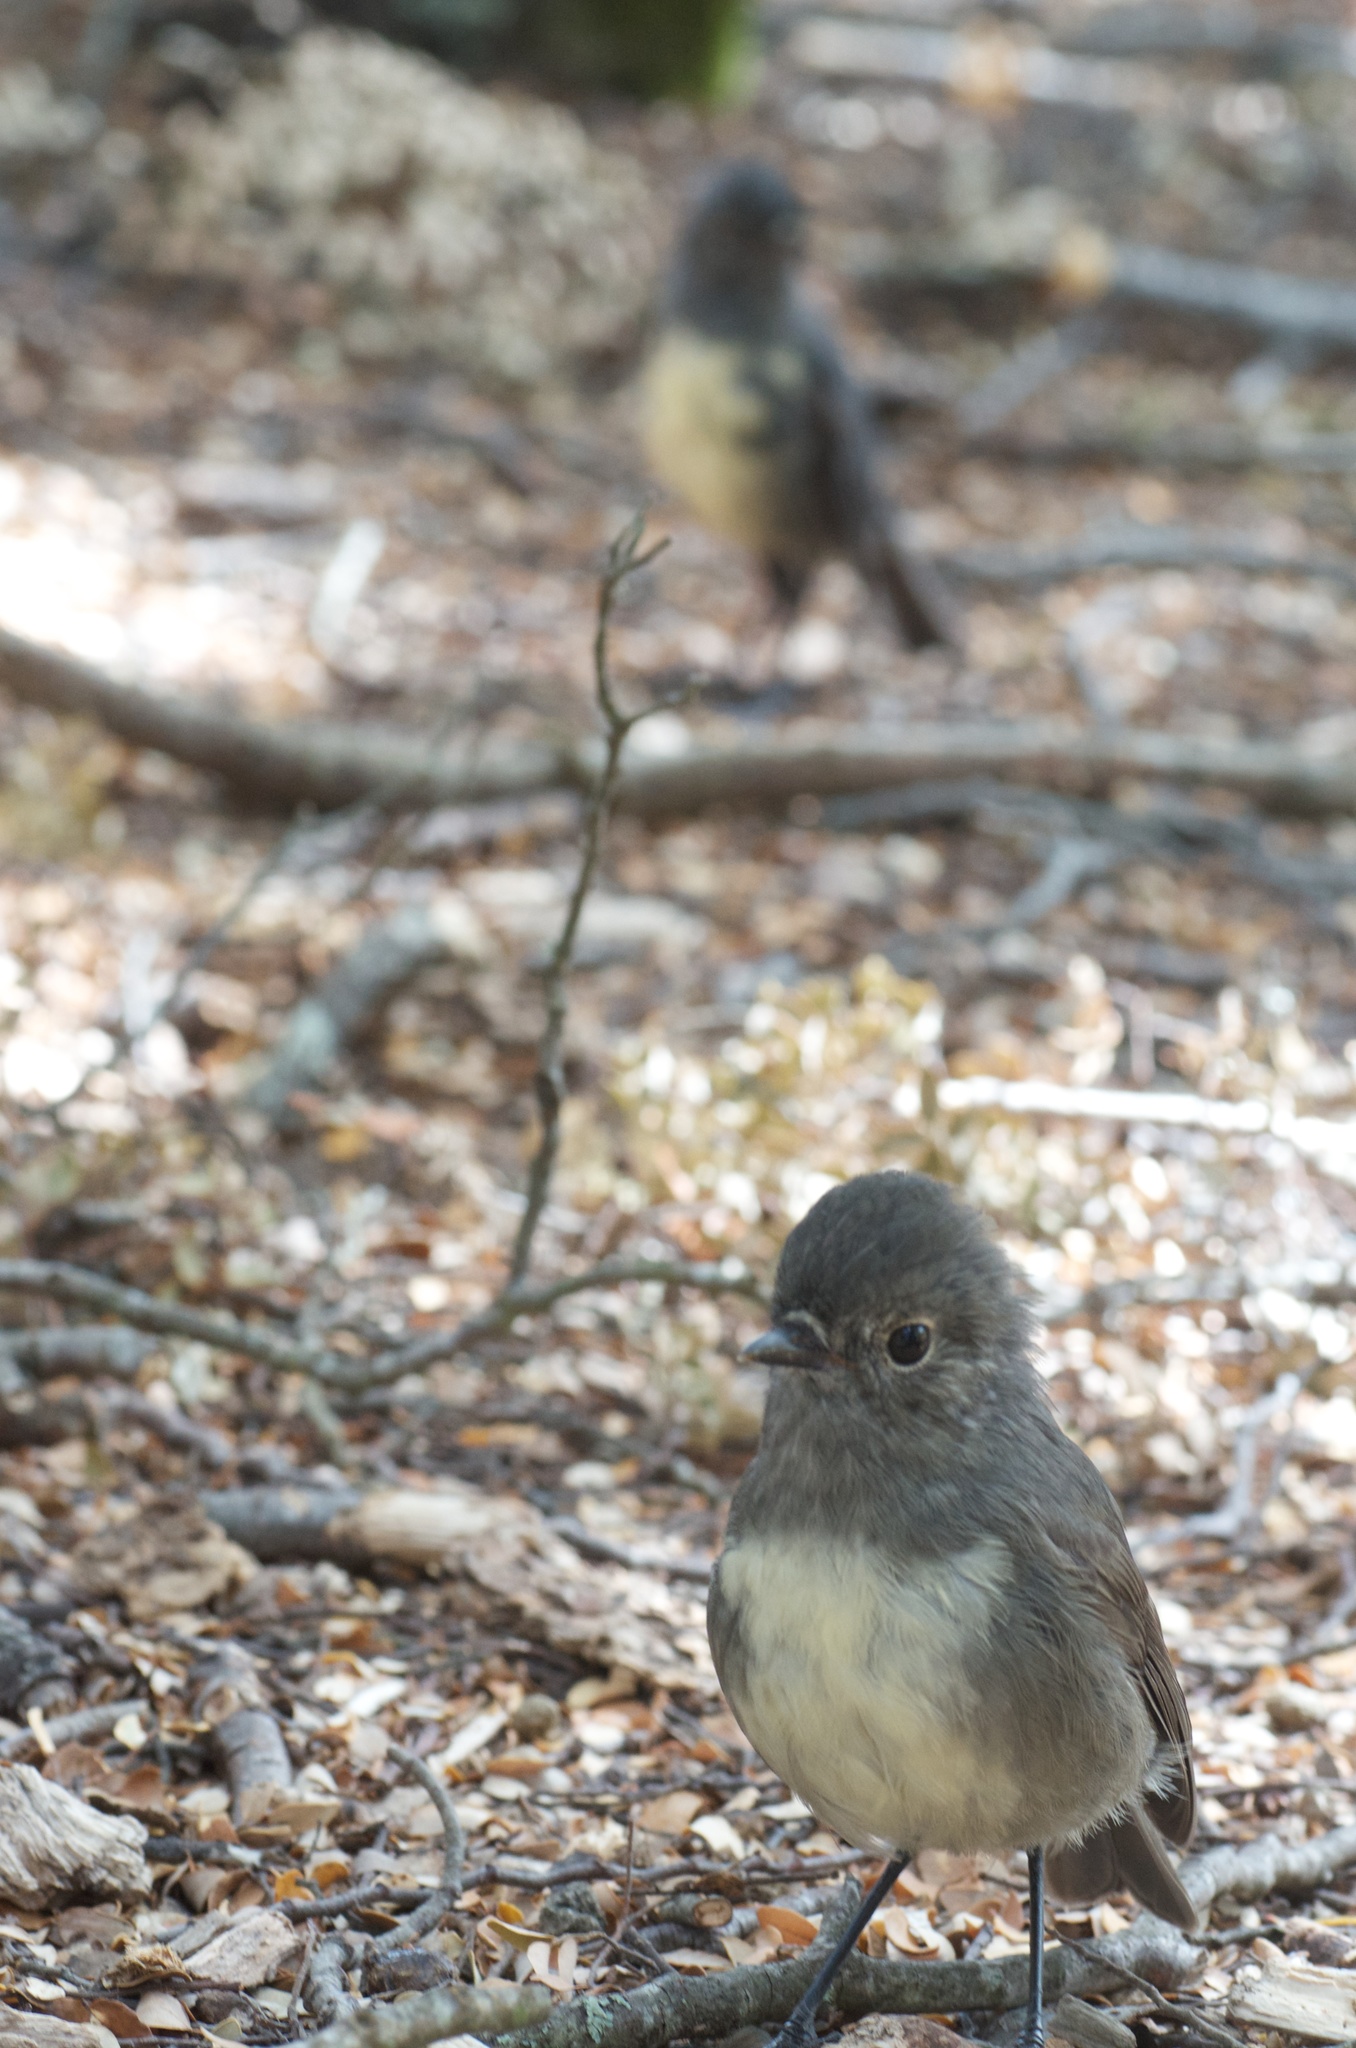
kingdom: Animalia
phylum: Chordata
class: Aves
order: Passeriformes
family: Petroicidae
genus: Petroica
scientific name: Petroica australis
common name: New zealand robin
